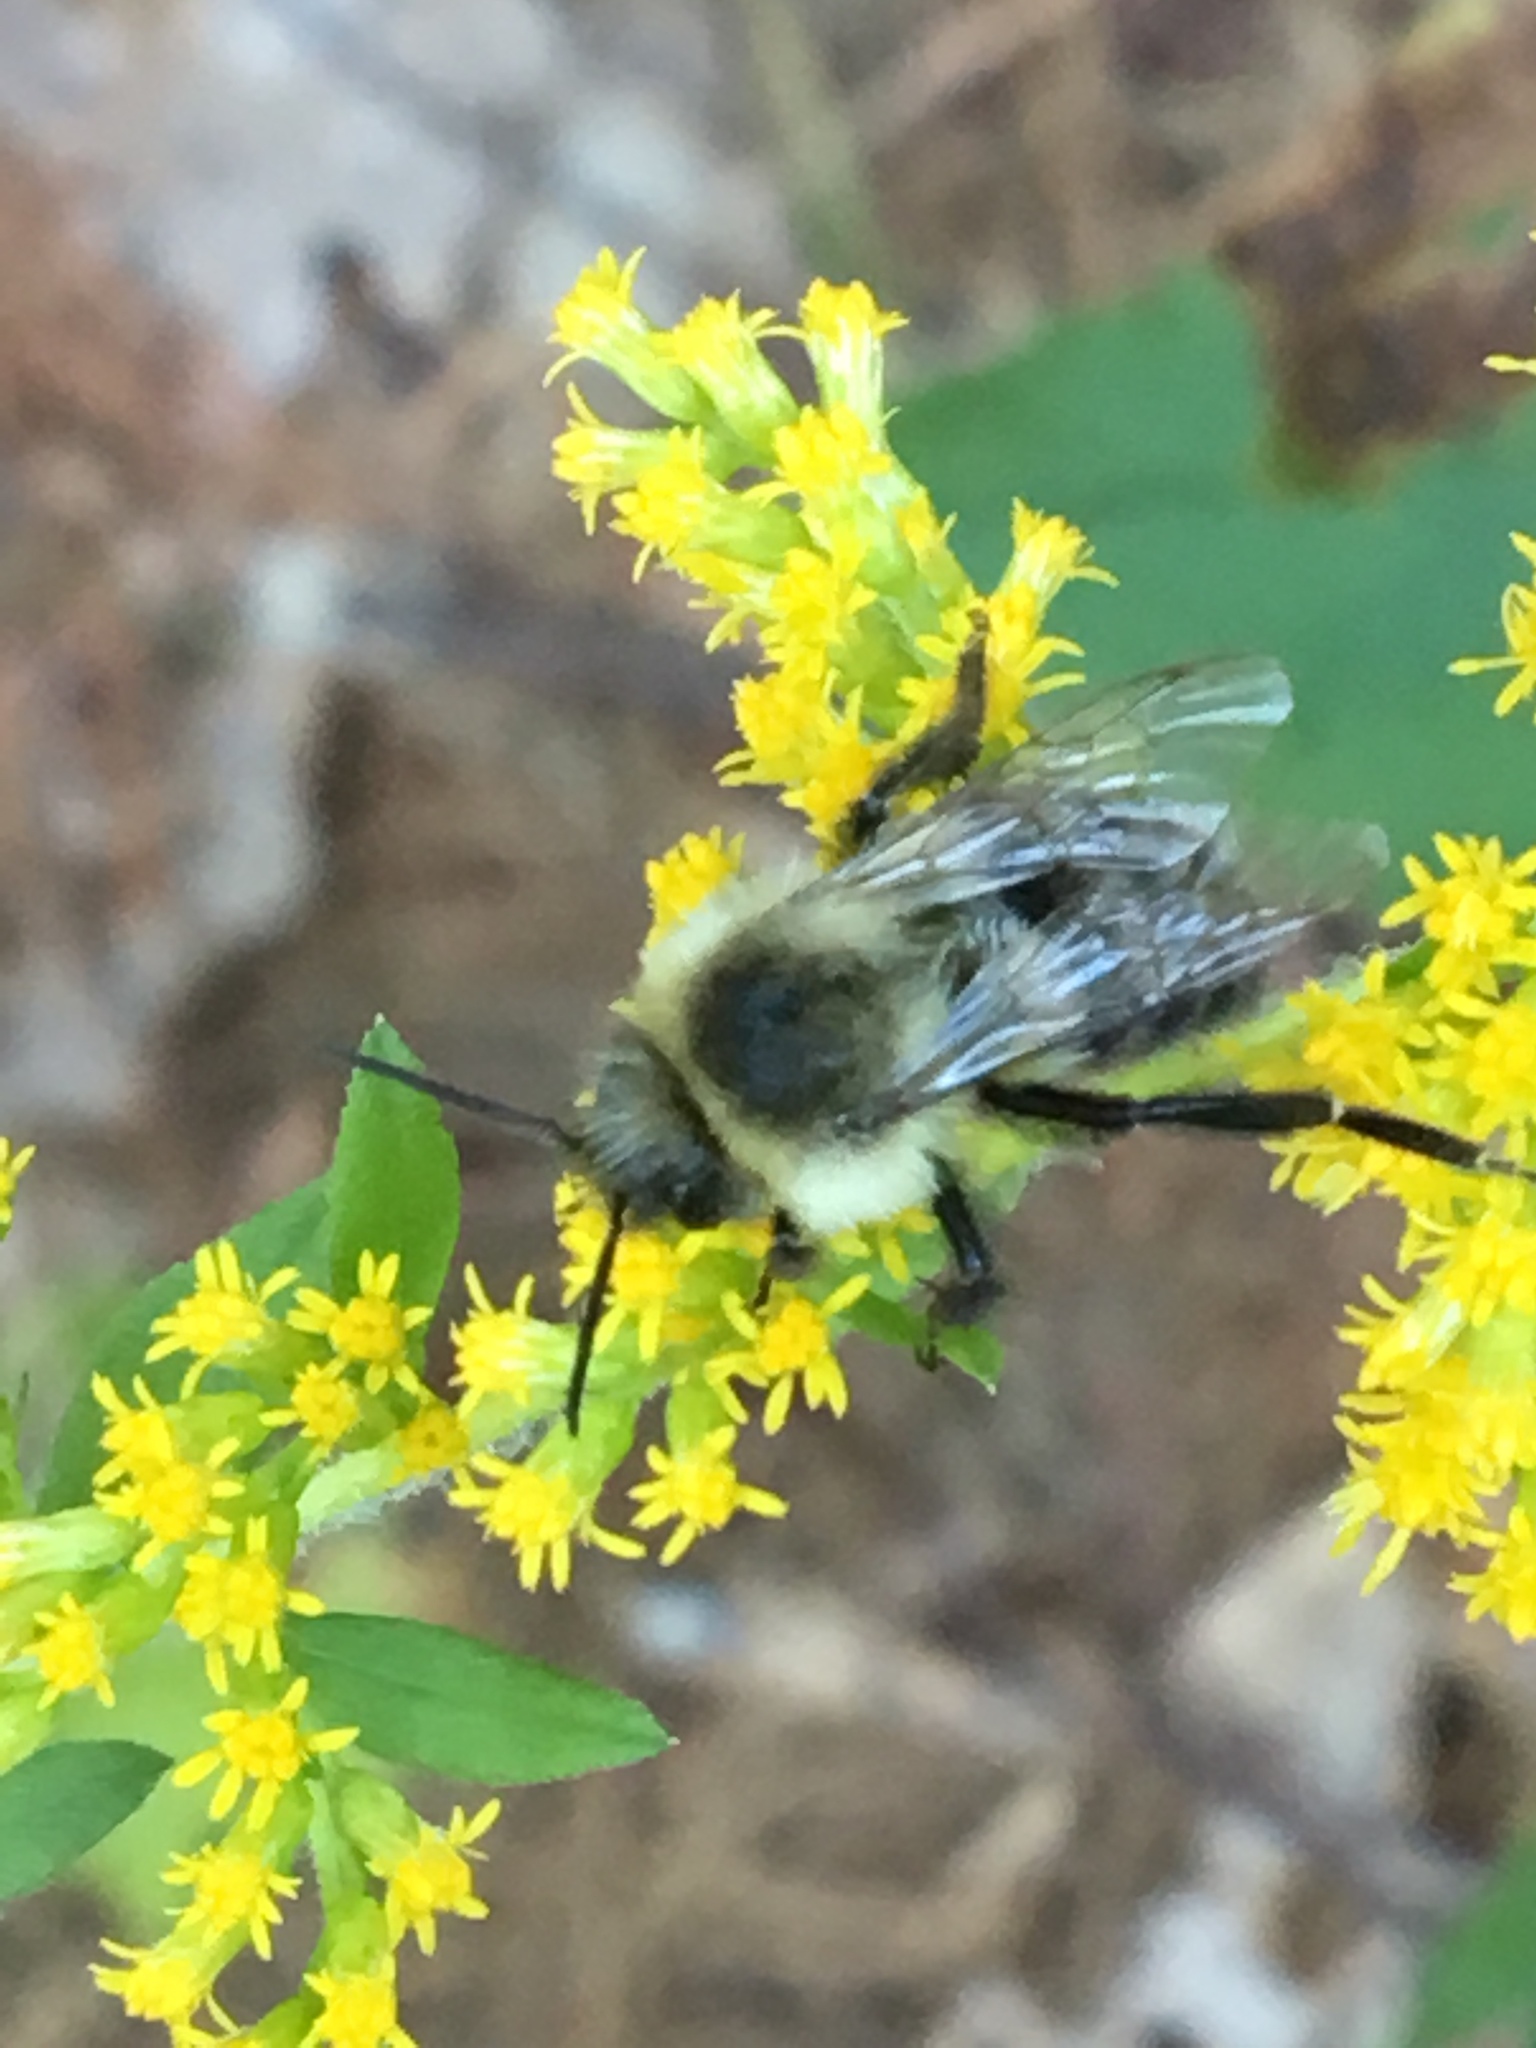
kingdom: Animalia
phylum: Arthropoda
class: Insecta
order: Hymenoptera
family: Apidae
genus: Bombus
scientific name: Bombus impatiens
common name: Common eastern bumble bee
